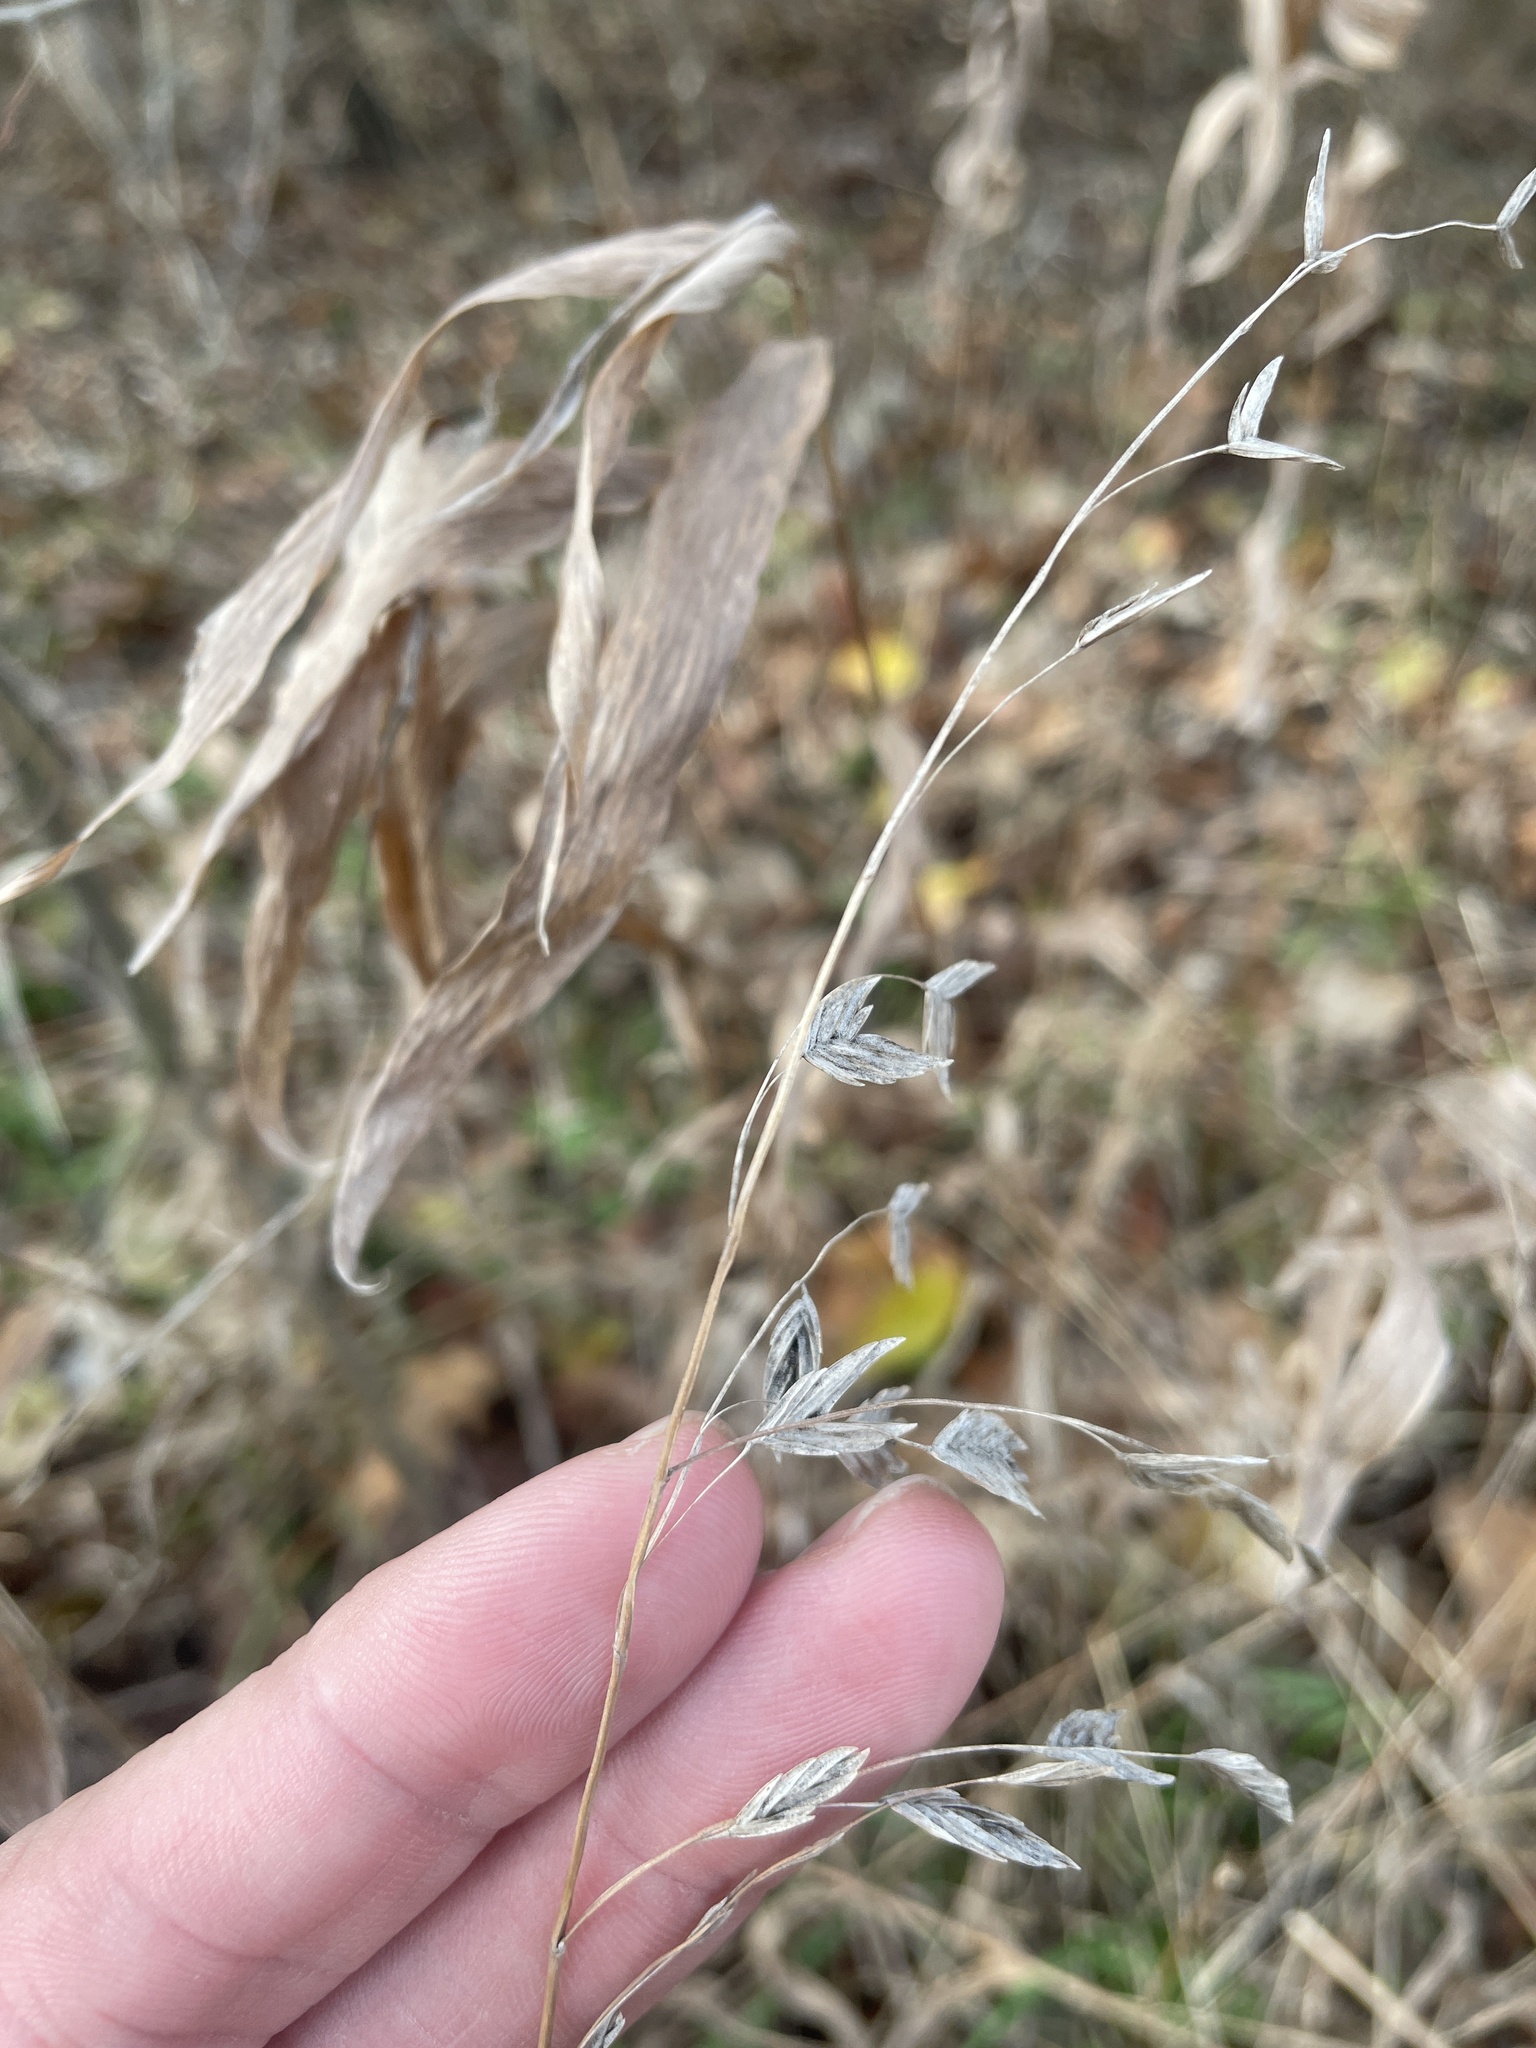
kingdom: Plantae
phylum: Tracheophyta
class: Liliopsida
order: Poales
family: Poaceae
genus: Chasmanthium
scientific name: Chasmanthium latifolium
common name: Broad-leaved chasmanthium
